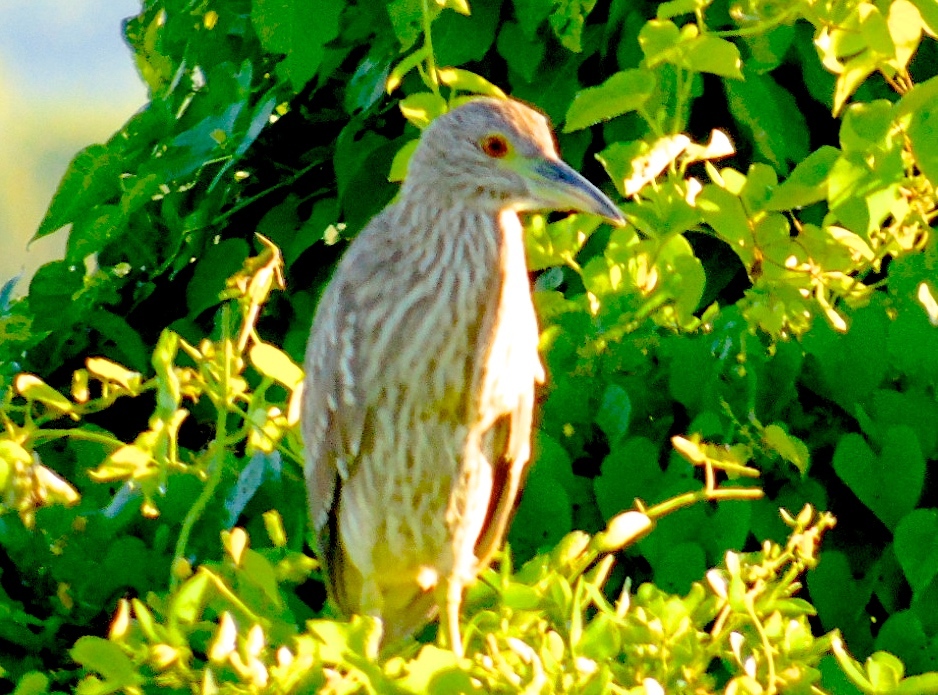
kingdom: Animalia
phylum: Chordata
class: Aves
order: Pelecaniformes
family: Ardeidae
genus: Nycticorax
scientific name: Nycticorax nycticorax
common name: Black-crowned night heron
